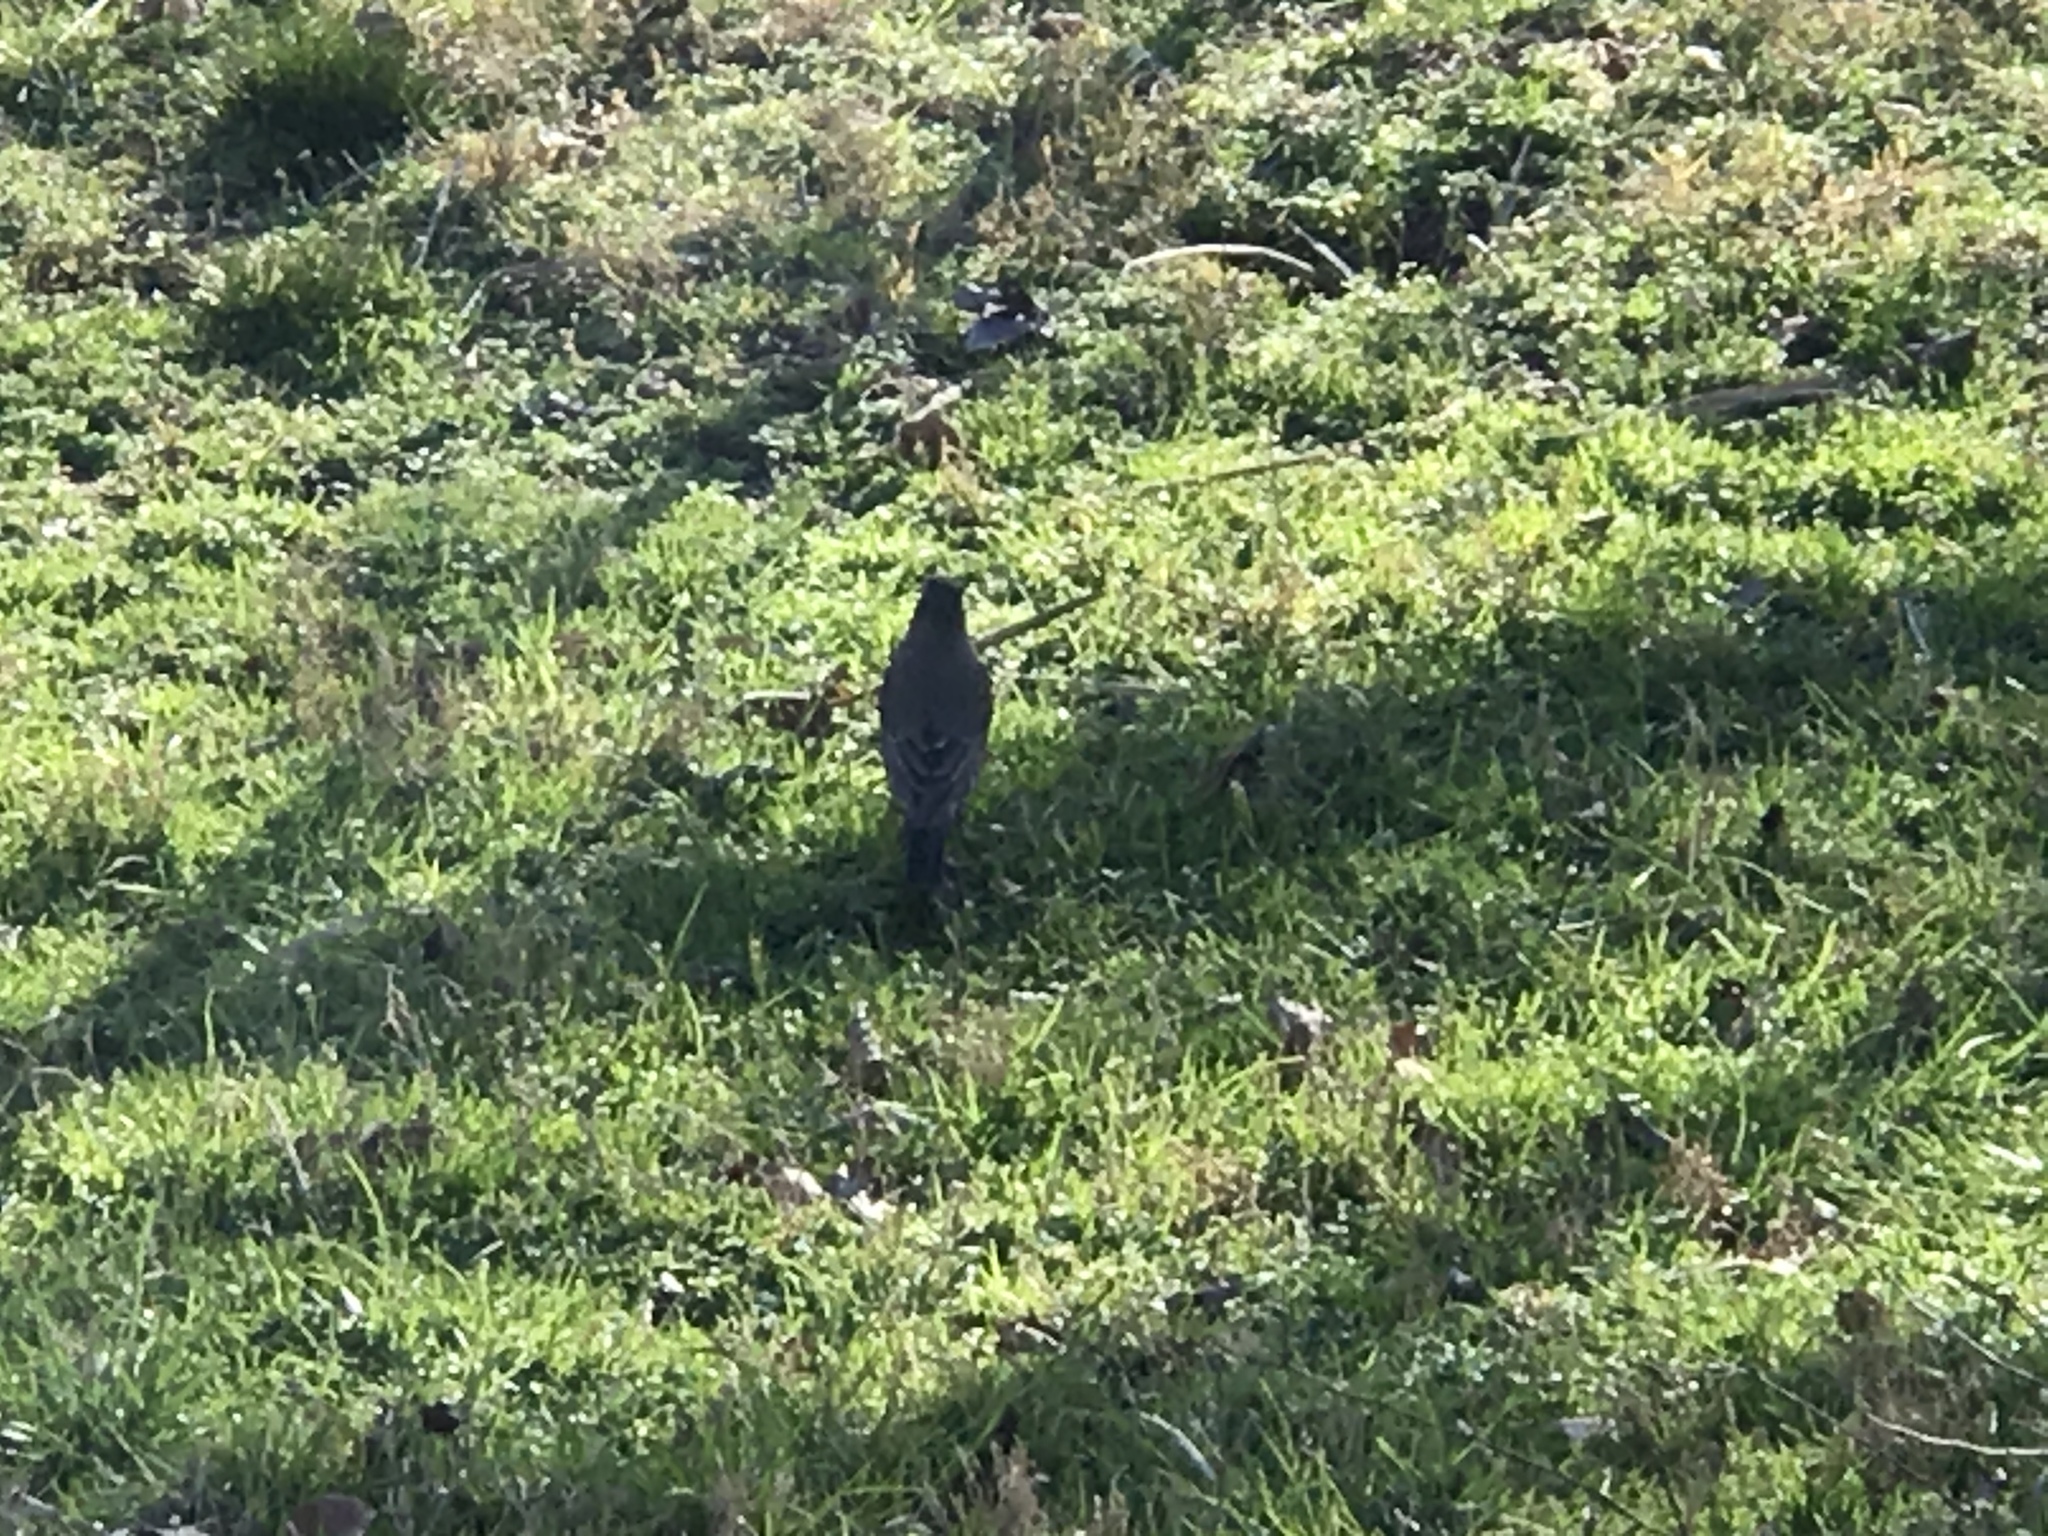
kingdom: Animalia
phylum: Chordata
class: Aves
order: Passeriformes
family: Turdidae
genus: Turdus
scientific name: Turdus migratorius
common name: American robin
